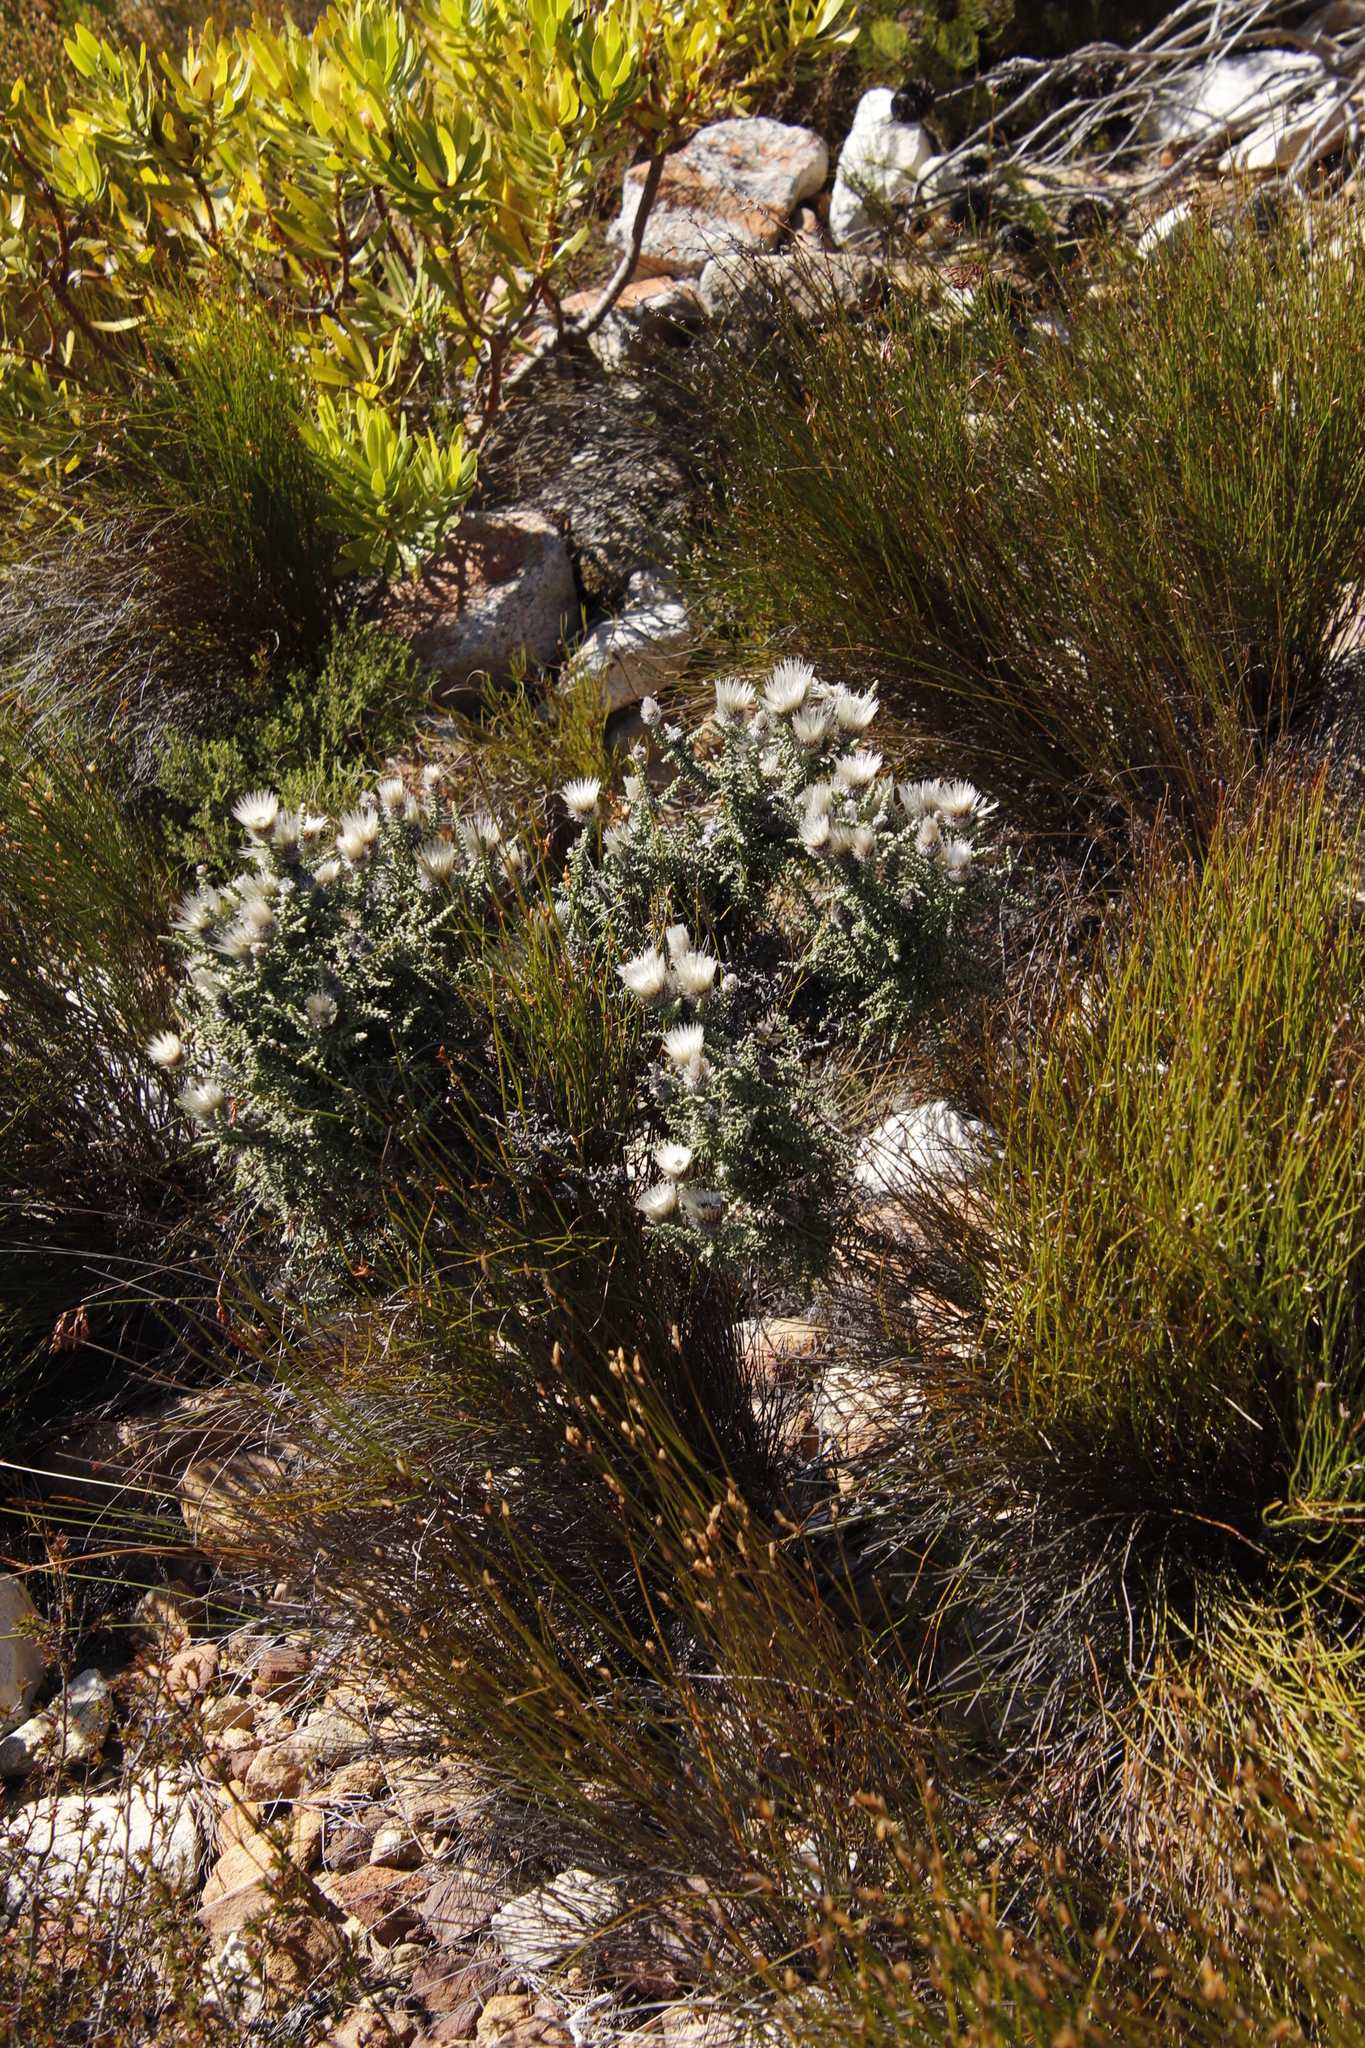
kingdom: Plantae
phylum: Tracheophyta
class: Magnoliopsida
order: Asterales
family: Asteraceae
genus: Phaenocoma
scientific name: Phaenocoma prolifera
